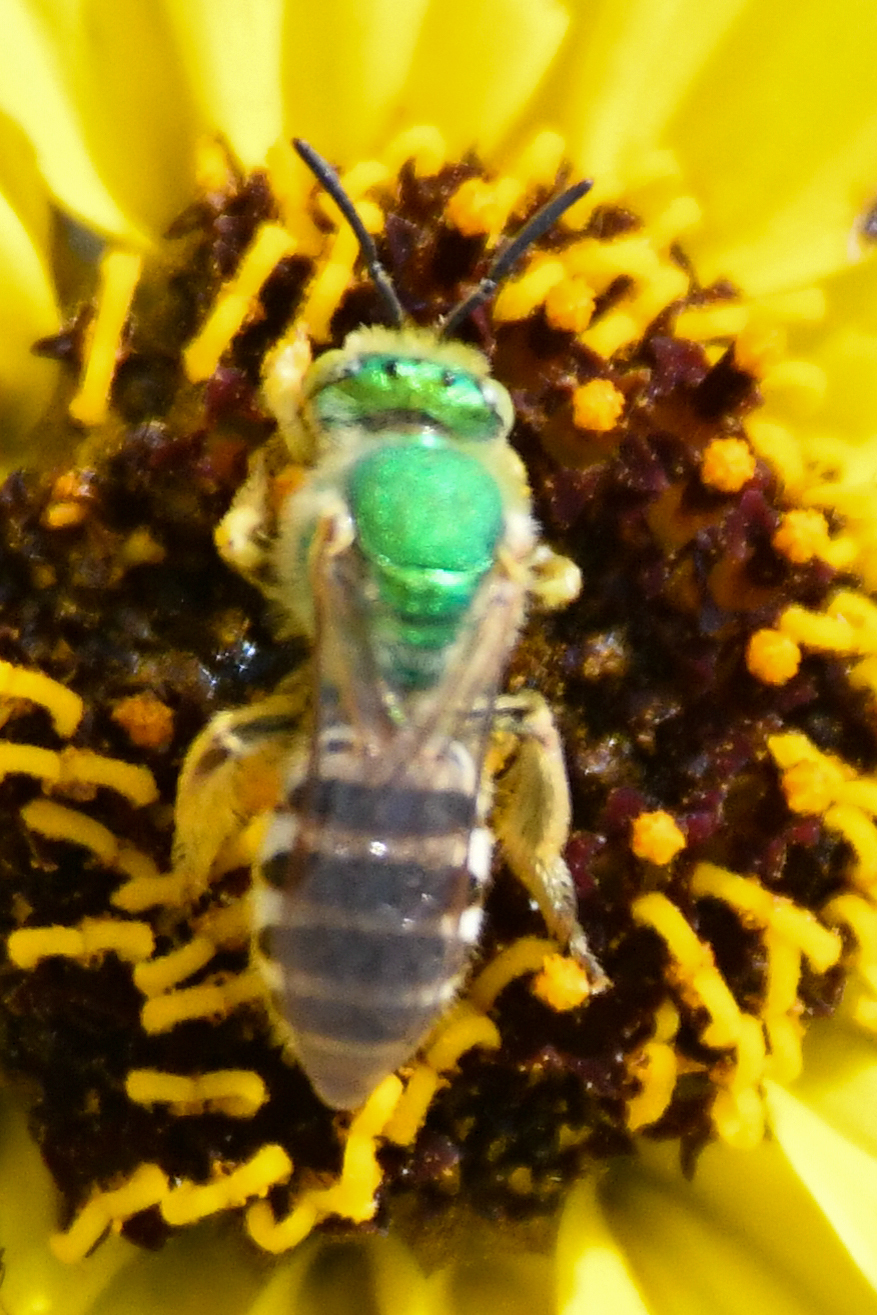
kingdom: Animalia
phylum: Arthropoda
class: Insecta
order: Hymenoptera
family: Halictidae
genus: Agapostemon
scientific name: Agapostemon melliventris
